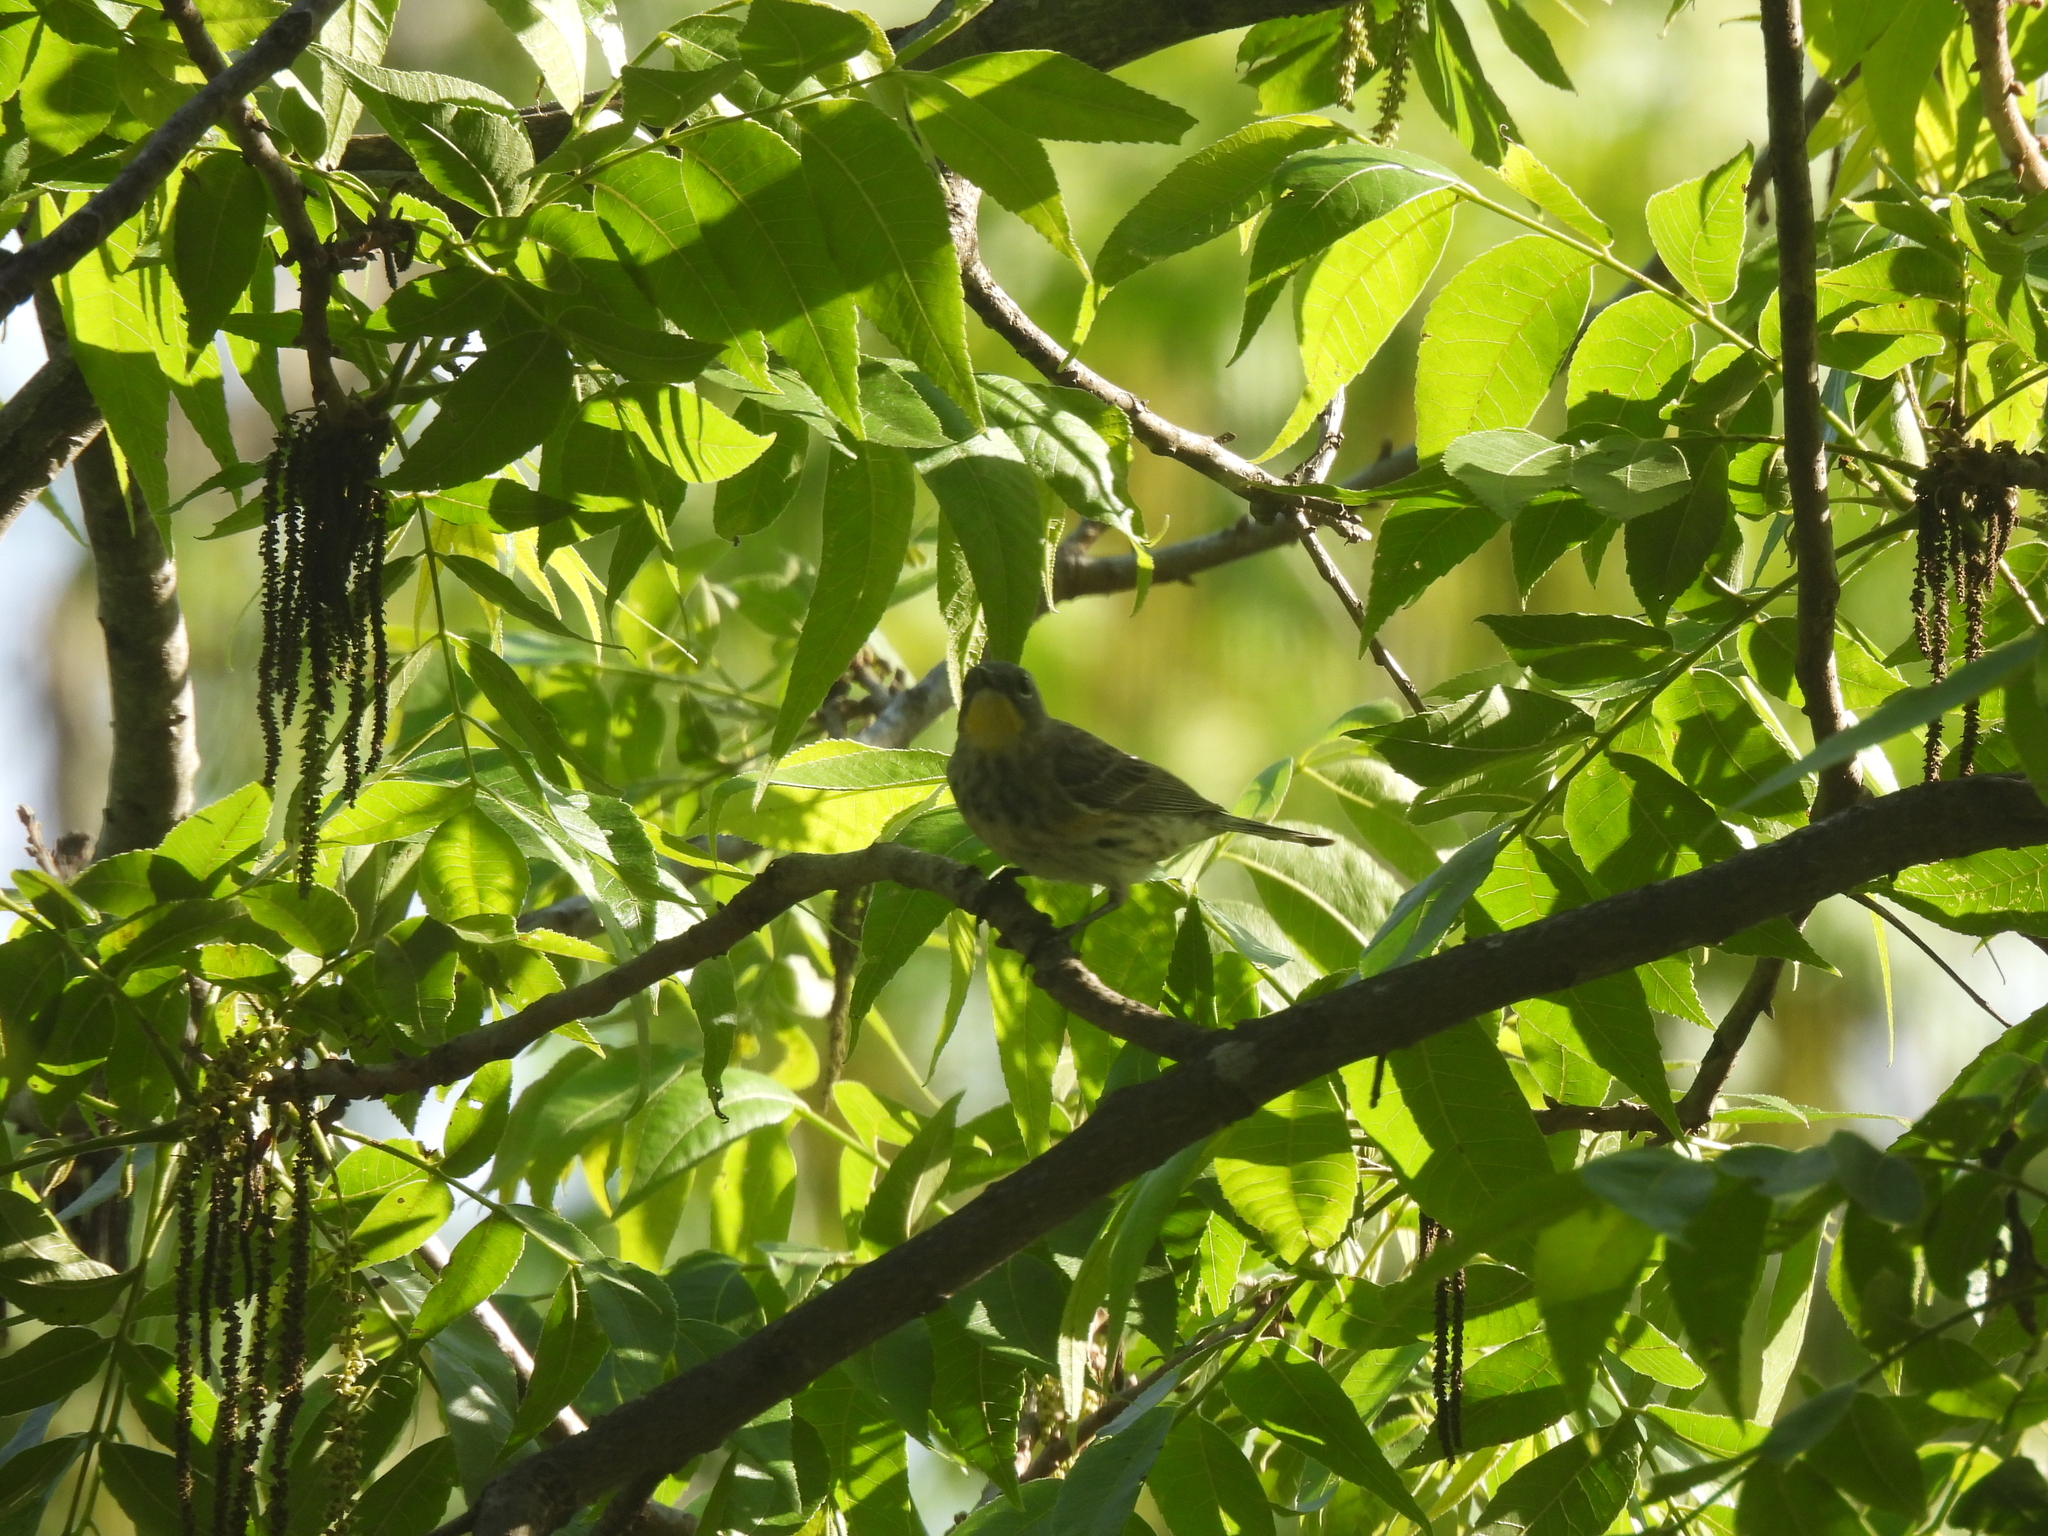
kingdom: Animalia
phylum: Chordata
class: Aves
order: Passeriformes
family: Parulidae
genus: Setophaga
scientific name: Setophaga coronata
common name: Myrtle warbler
